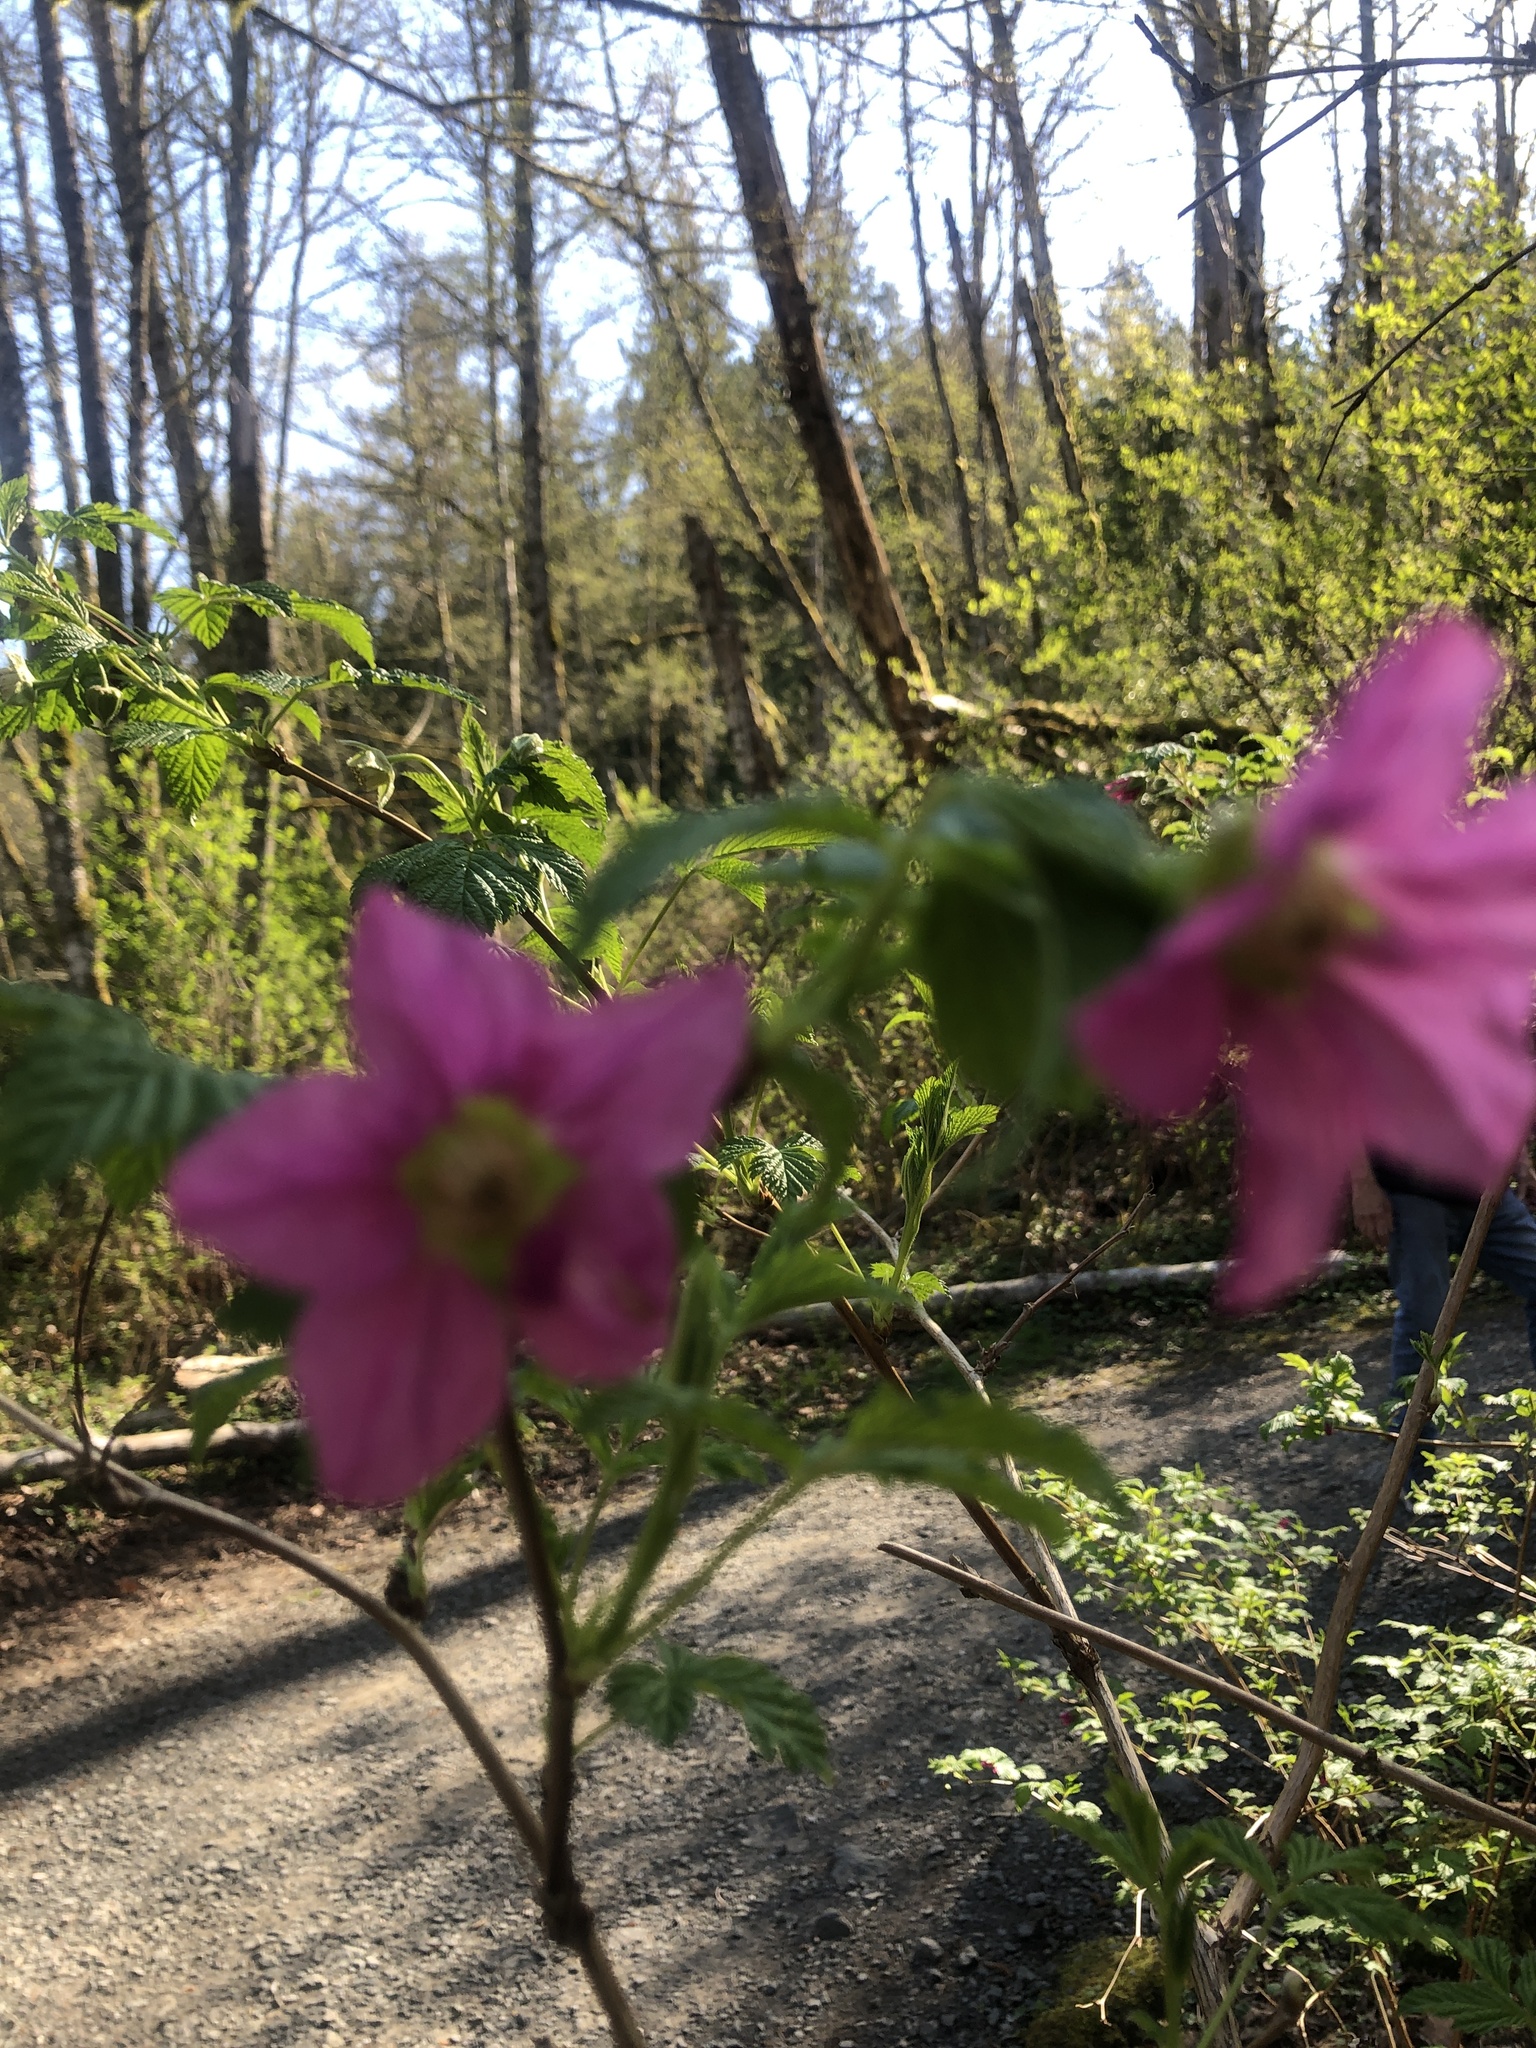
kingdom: Plantae
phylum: Tracheophyta
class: Magnoliopsida
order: Rosales
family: Rosaceae
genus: Rubus
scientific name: Rubus spectabilis
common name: Salmonberry
